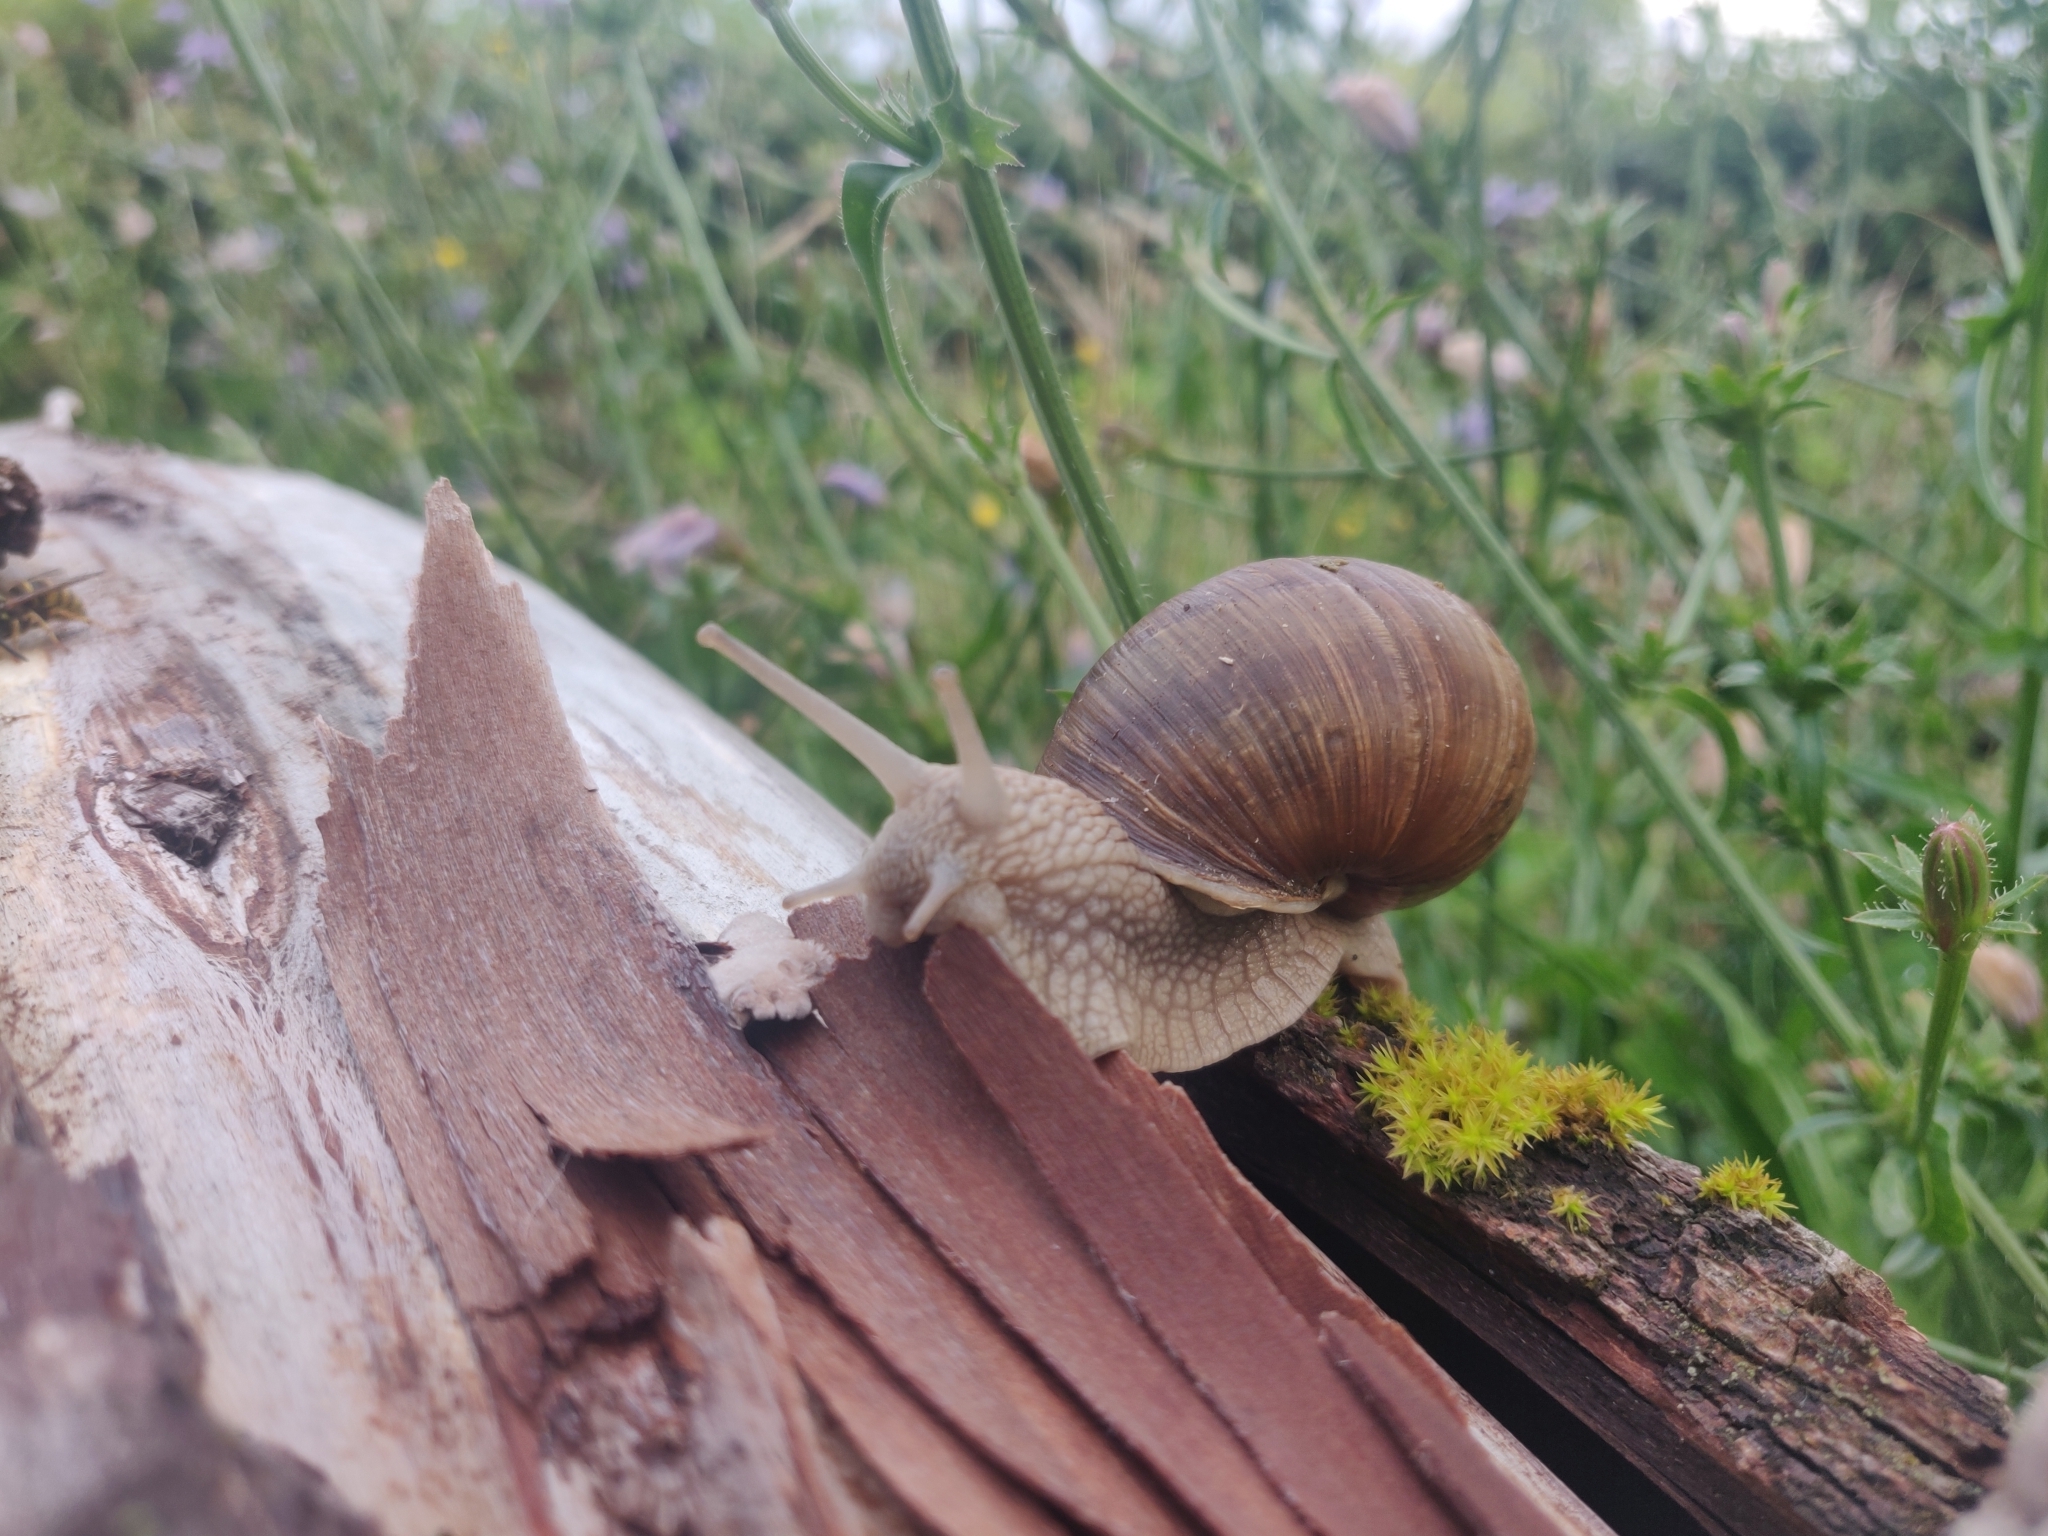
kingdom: Animalia
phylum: Mollusca
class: Gastropoda
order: Stylommatophora
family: Helicidae
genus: Helix
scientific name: Helix pomatia
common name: Roman snail
